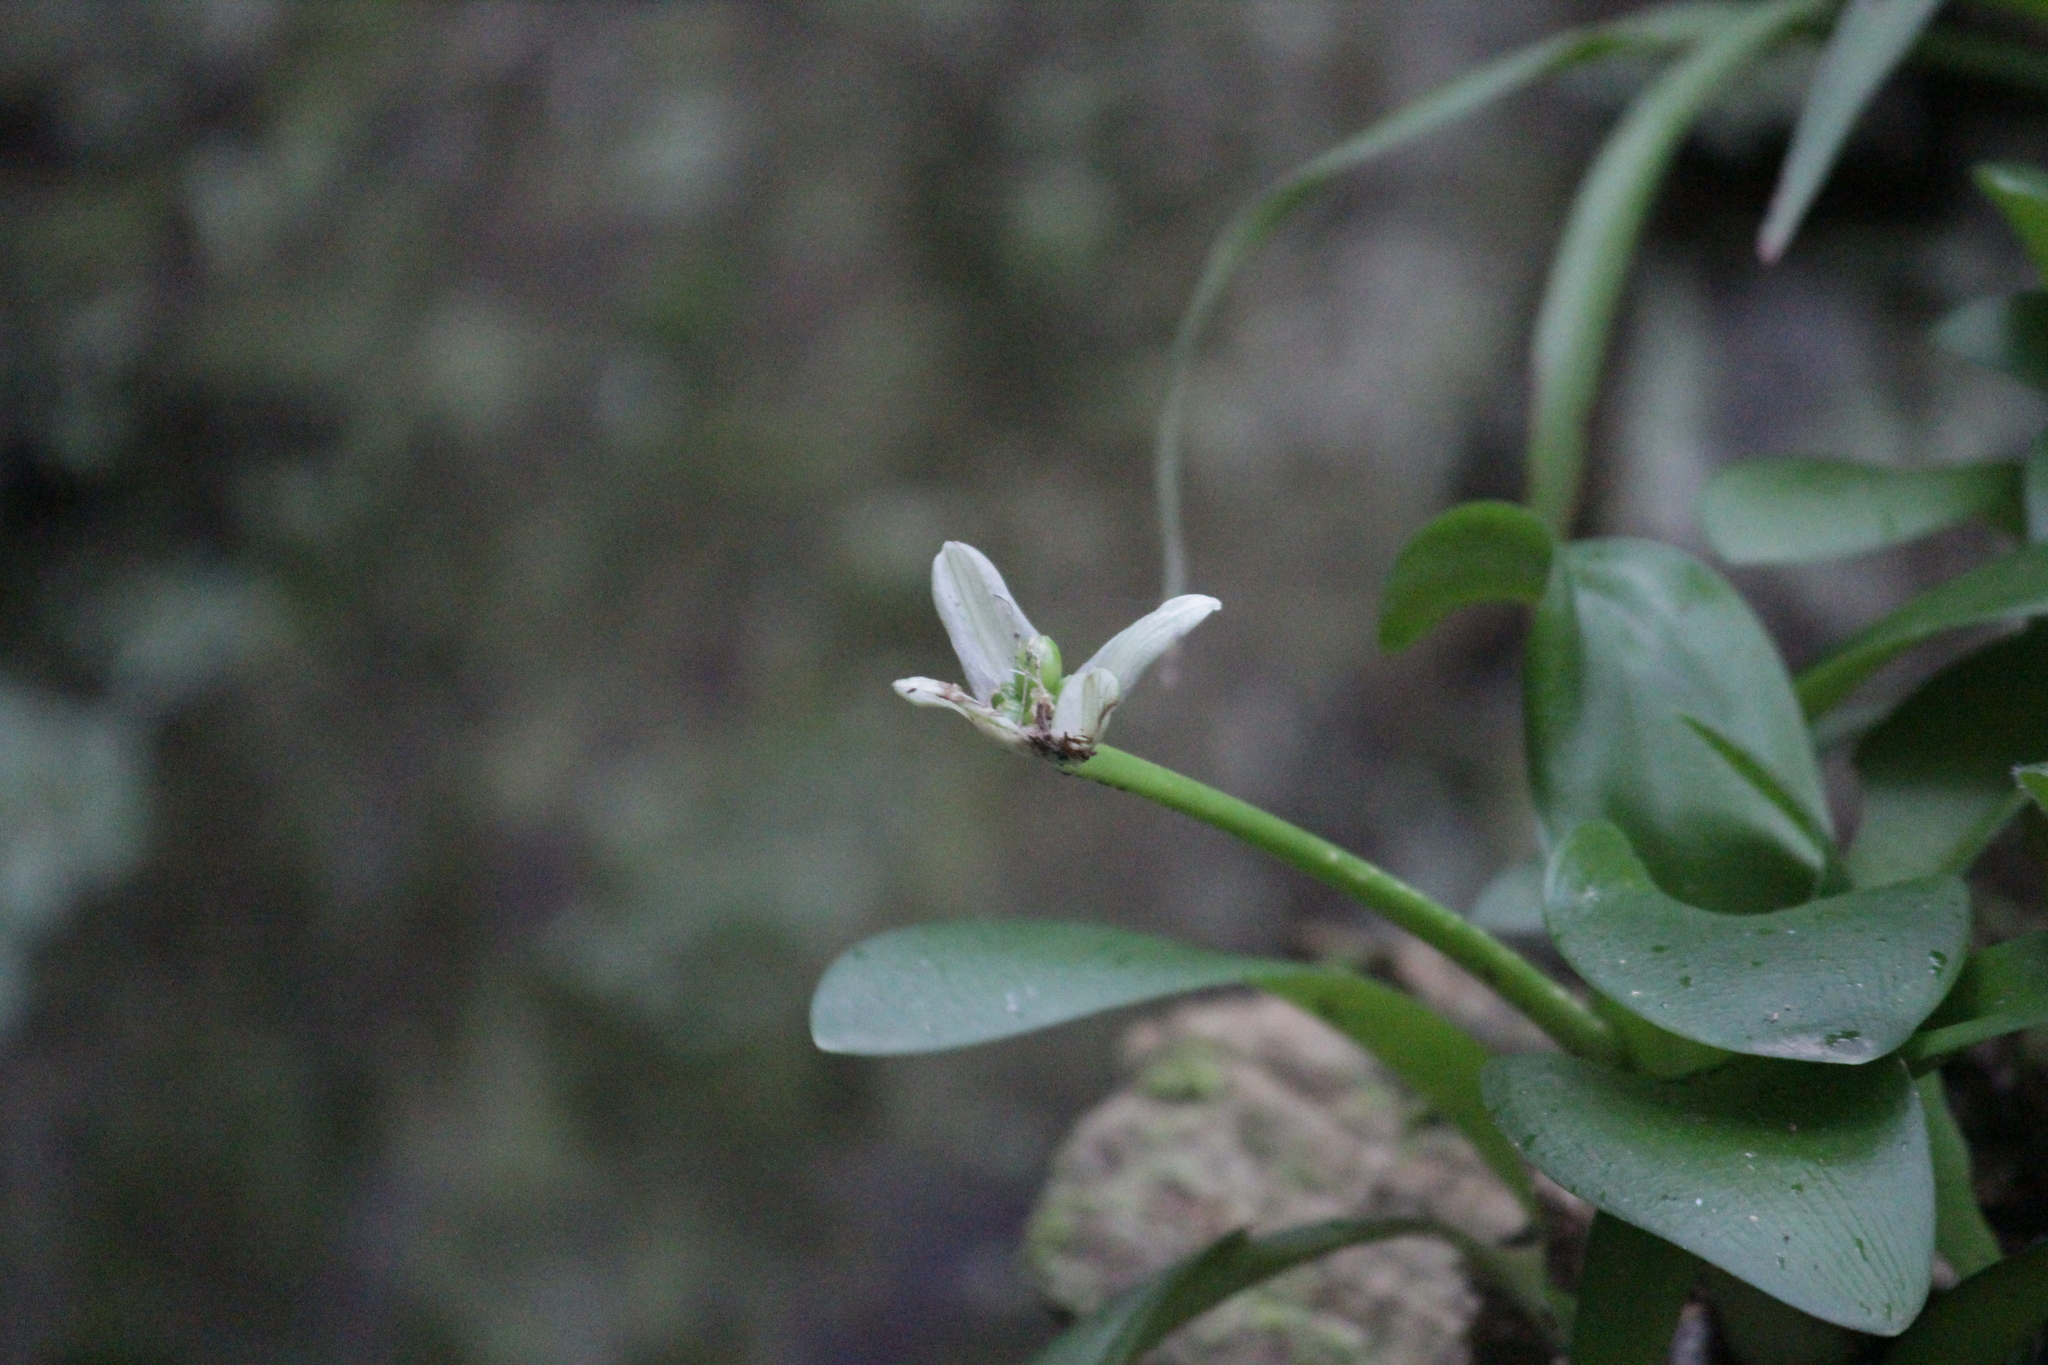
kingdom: Plantae
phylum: Tracheophyta
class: Liliopsida
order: Asparagales
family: Amaryllidaceae
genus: Haemanthus
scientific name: Haemanthus albiflos
